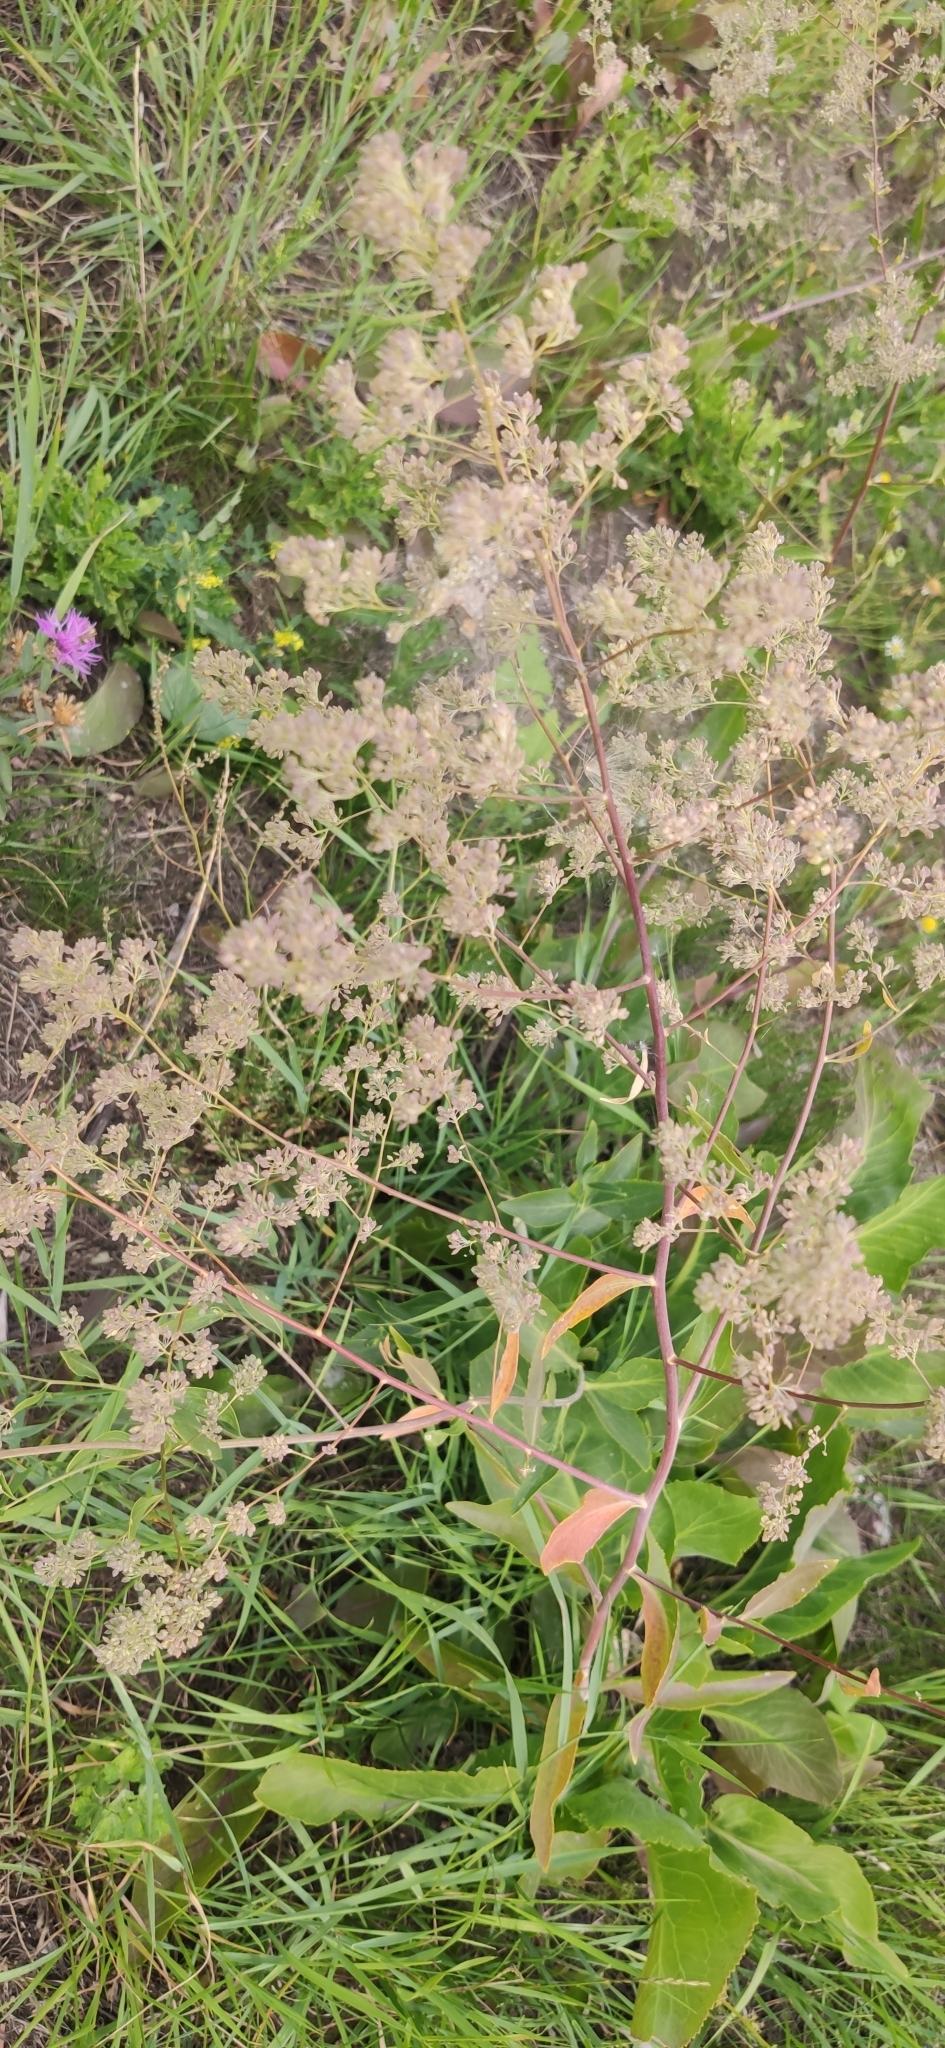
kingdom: Plantae
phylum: Tracheophyta
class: Magnoliopsida
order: Brassicales
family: Brassicaceae
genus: Lepidium
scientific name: Lepidium latifolium
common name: Dittander
